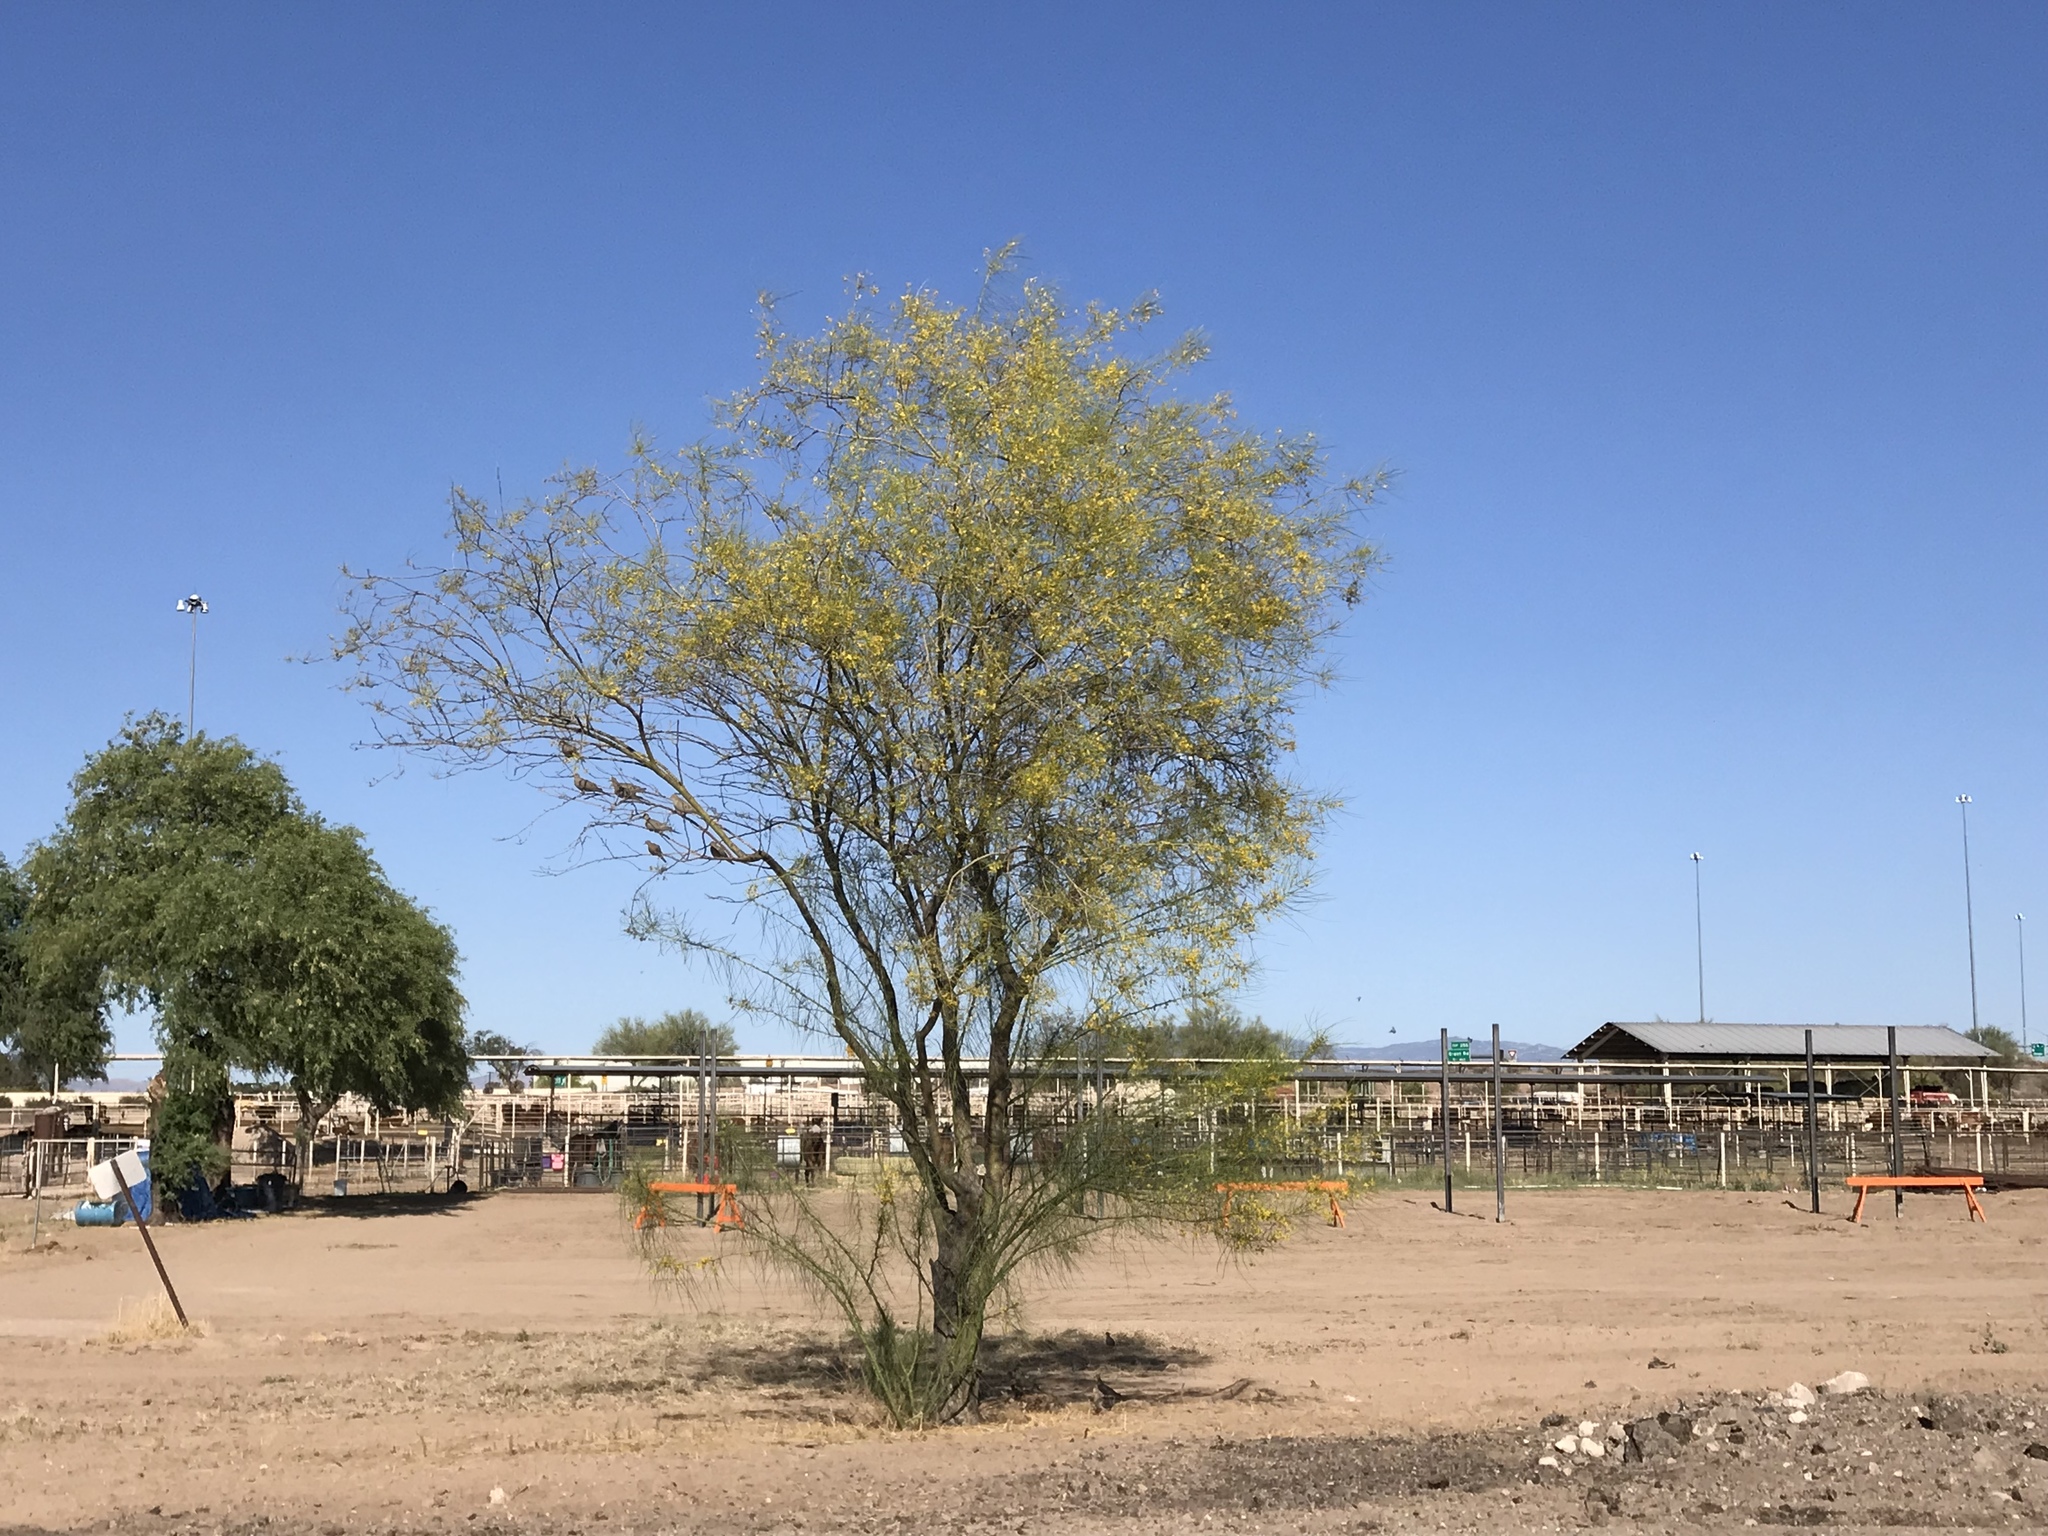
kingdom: Plantae
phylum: Tracheophyta
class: Magnoliopsida
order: Fabales
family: Fabaceae
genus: Parkinsonia
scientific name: Parkinsonia aculeata
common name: Jerusalem thorn
